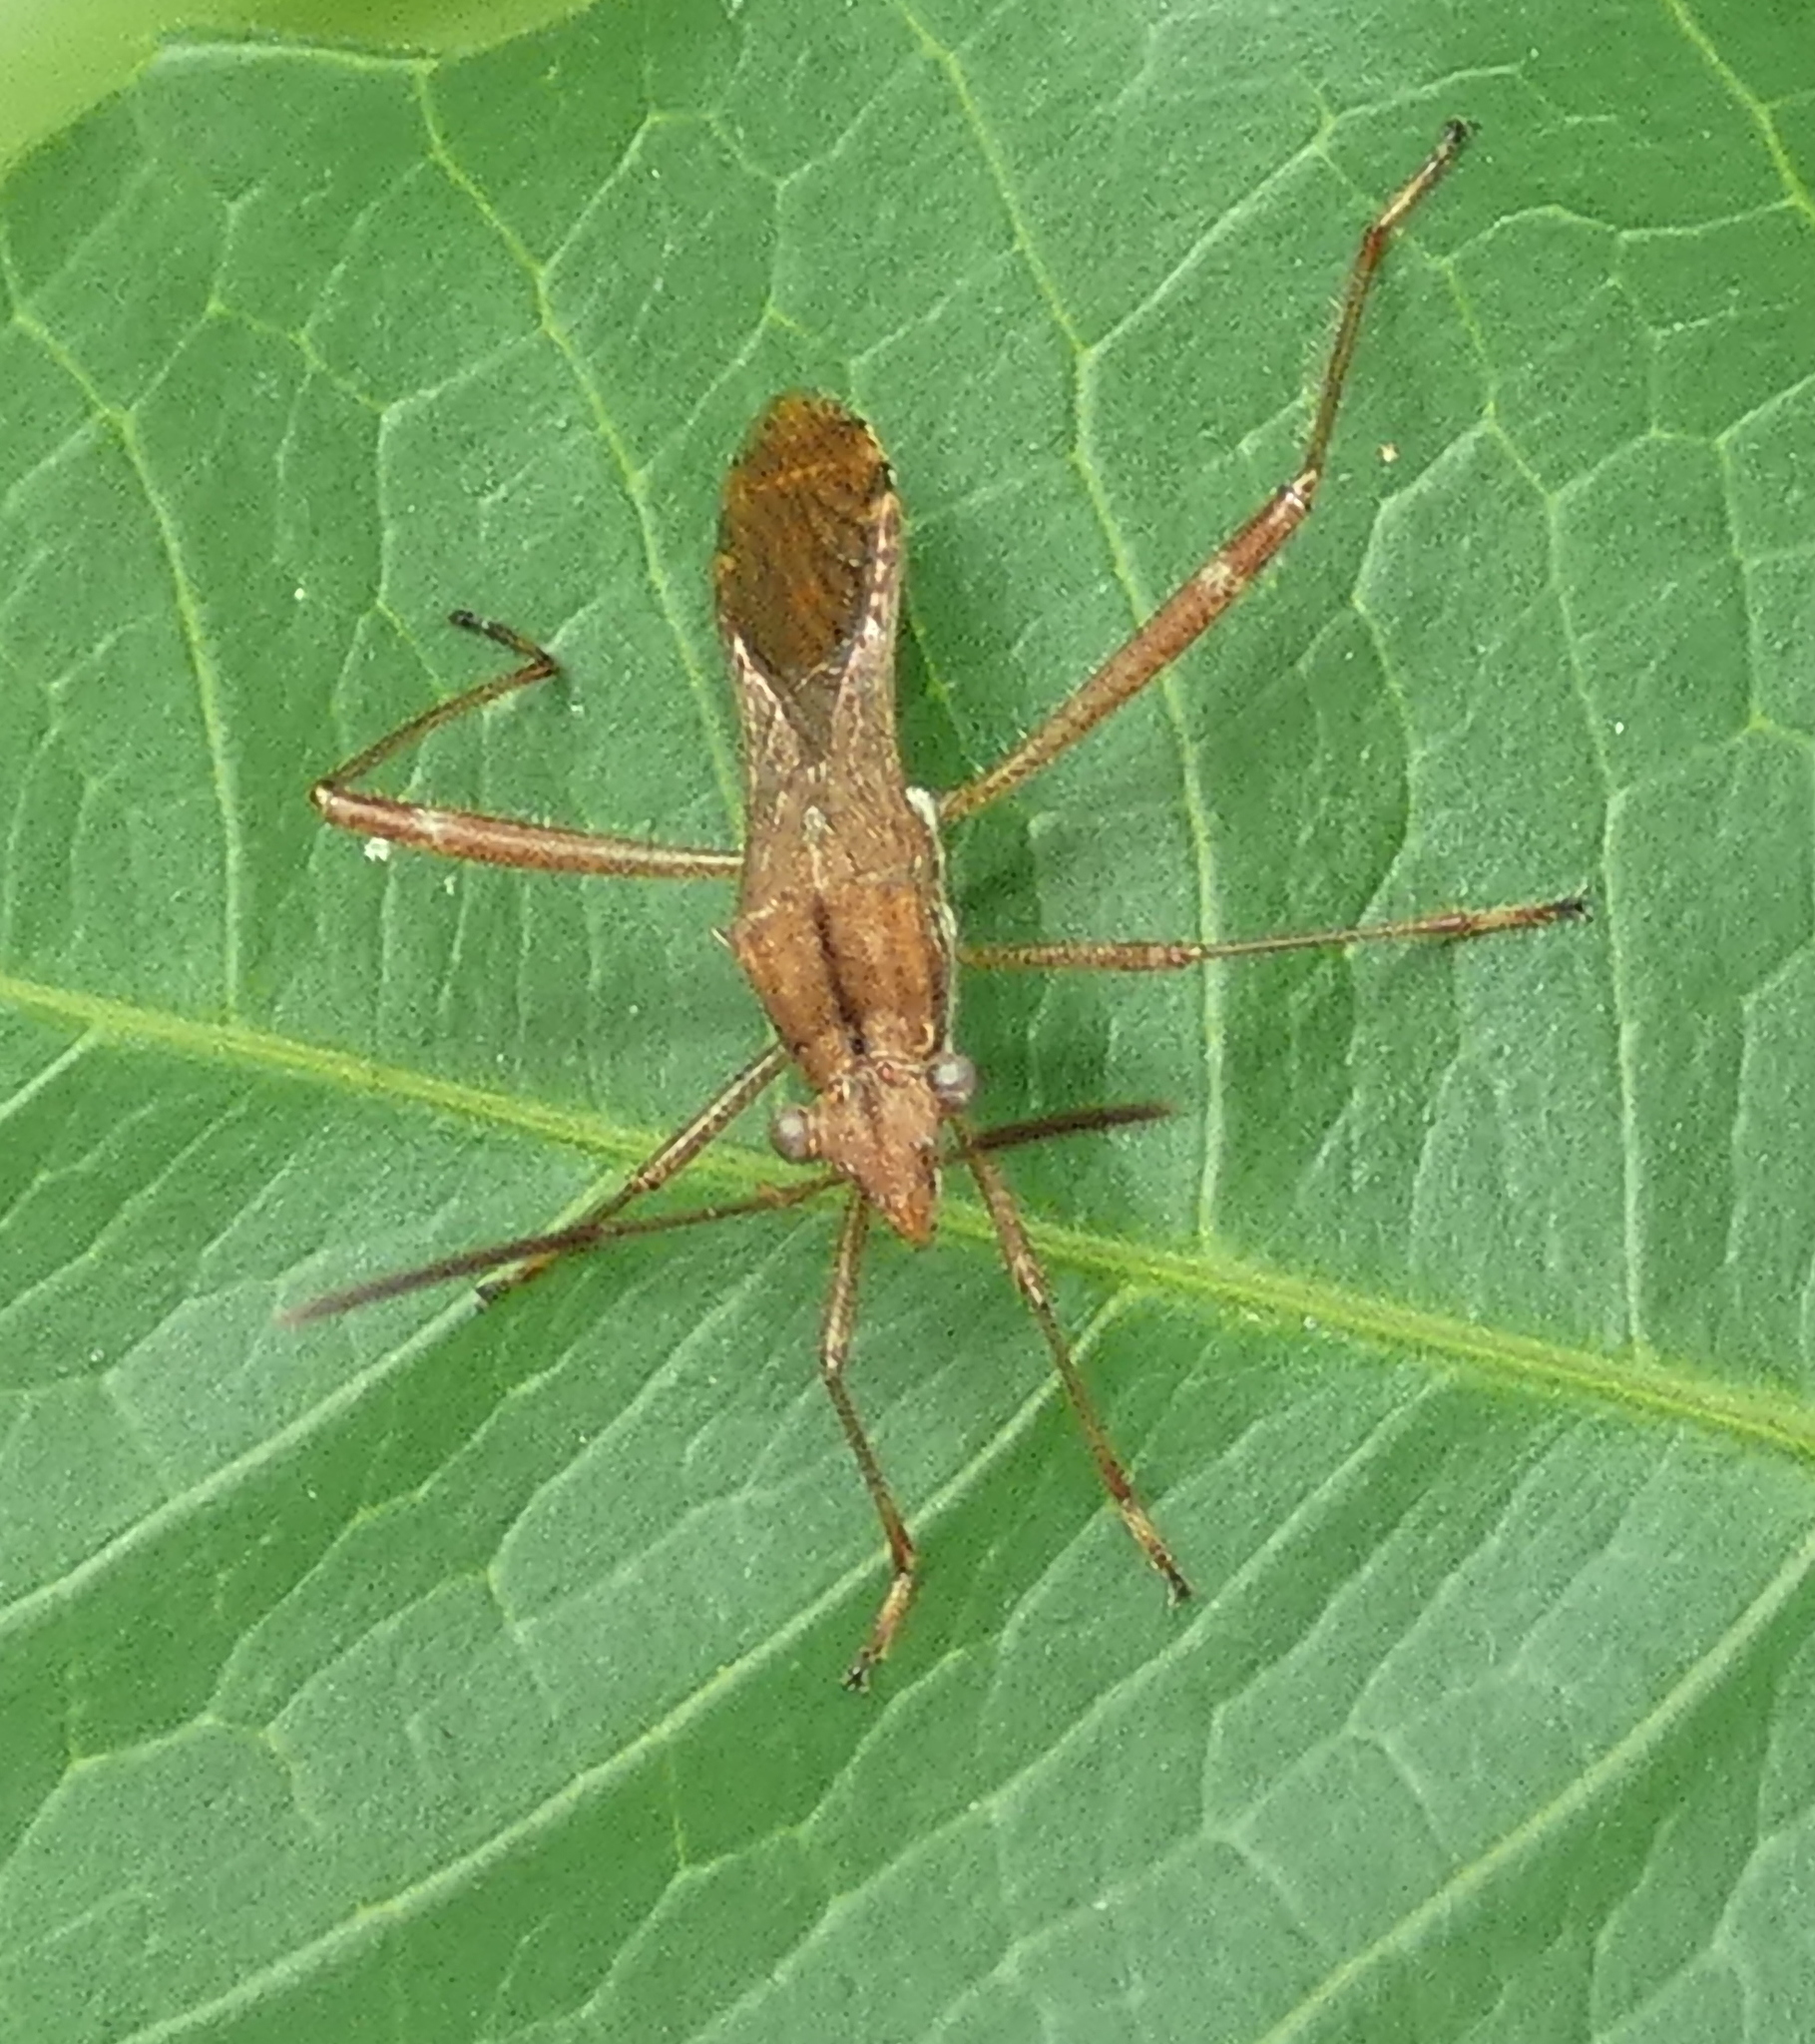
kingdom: Animalia
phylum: Arthropoda
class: Insecta
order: Hemiptera
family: Alydidae
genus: Neomegalotomus
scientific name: Neomegalotomus parvus
